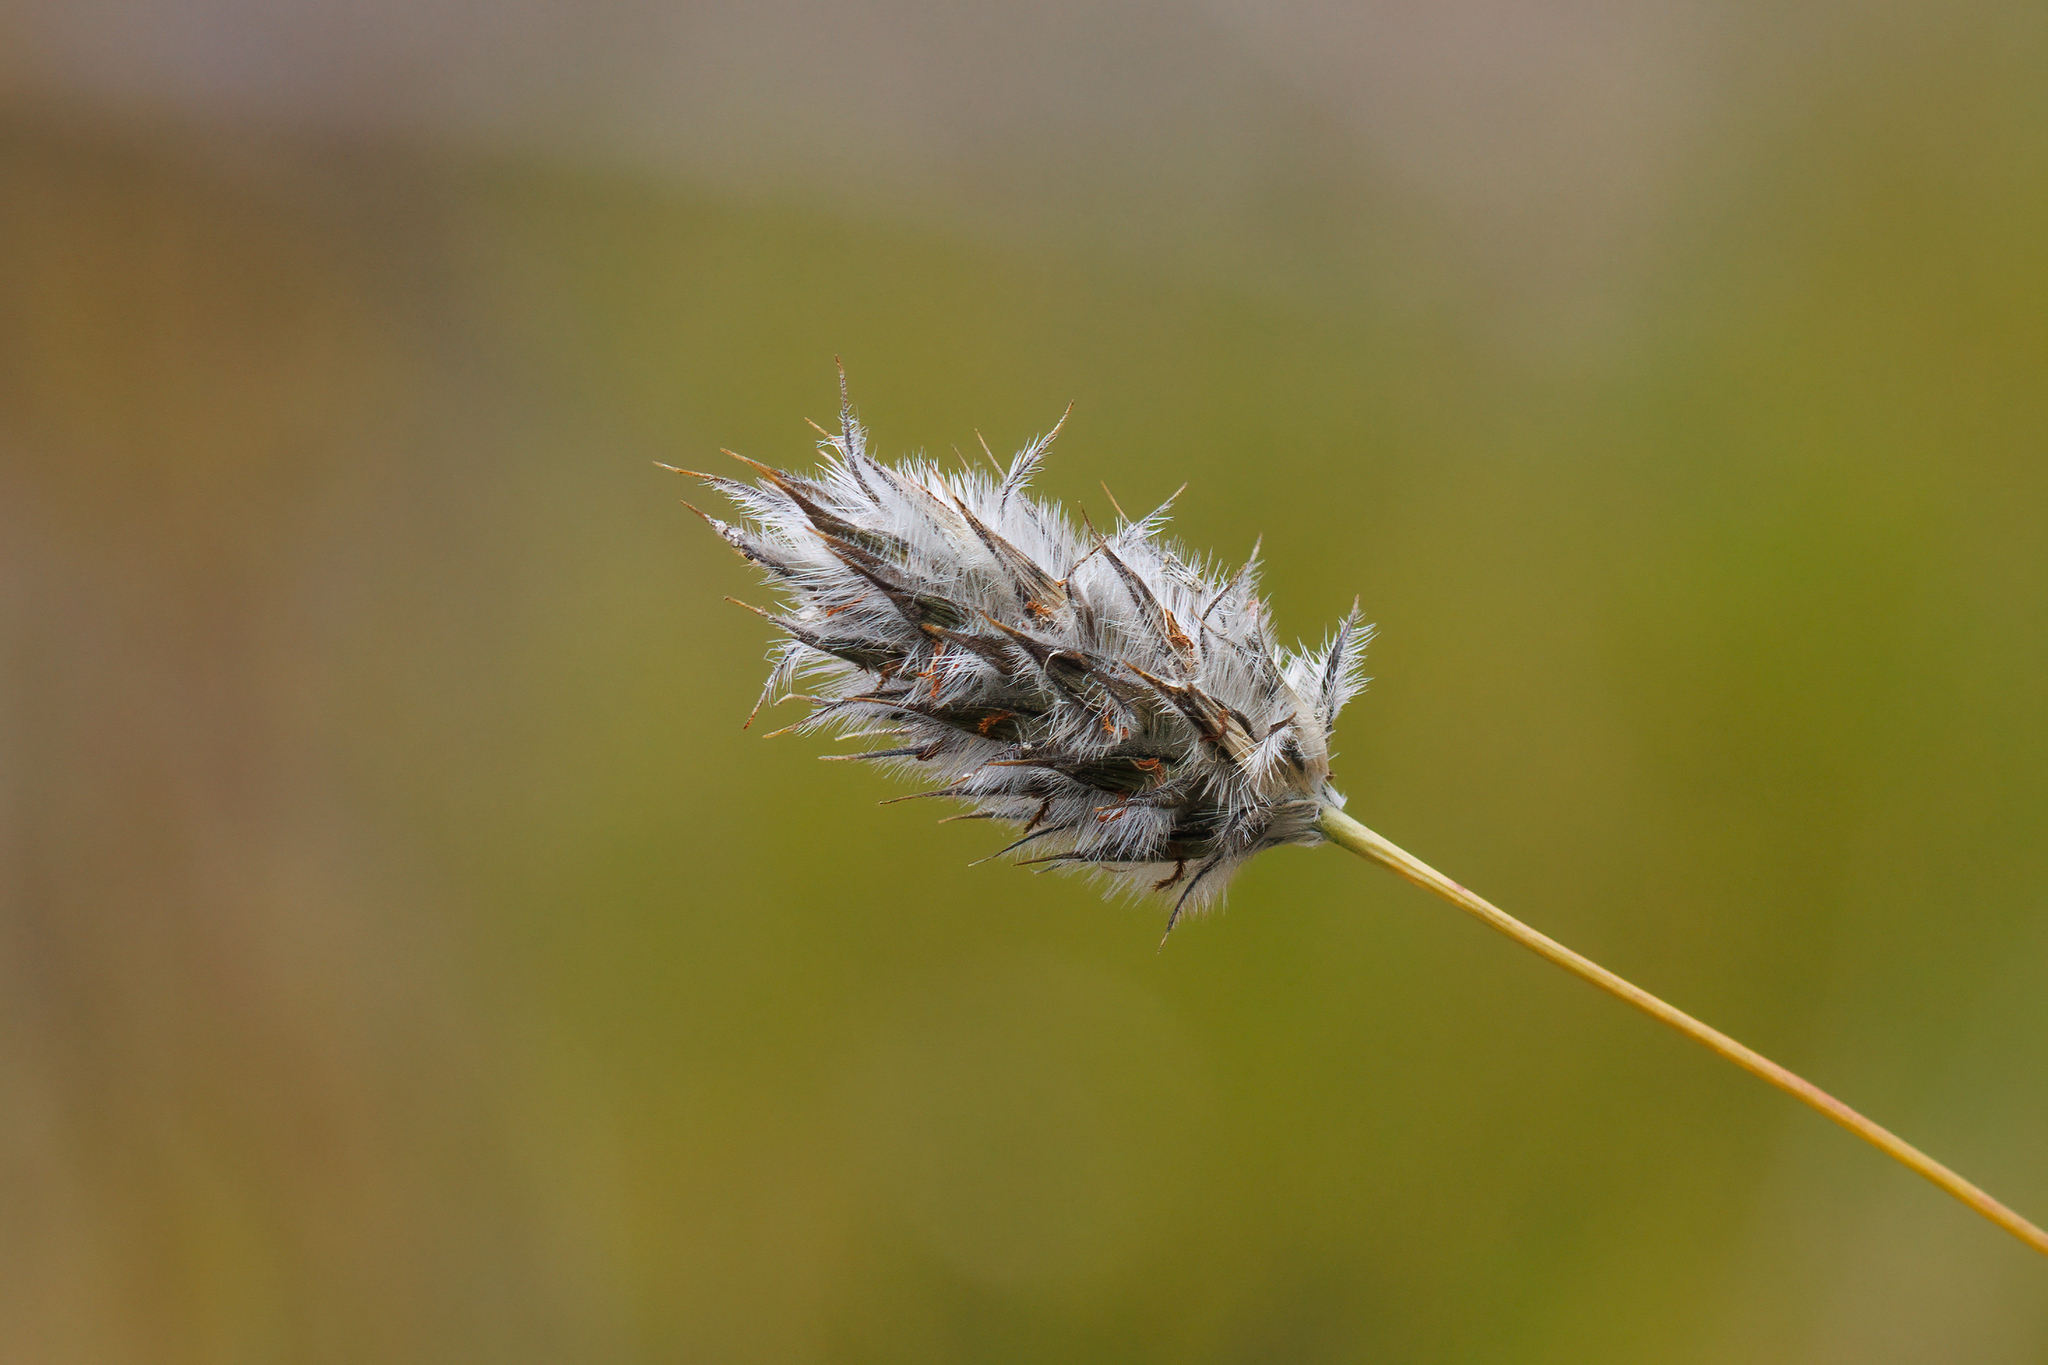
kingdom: Plantae
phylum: Tracheophyta
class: Liliopsida
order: Poales
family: Poaceae
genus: Neurachne
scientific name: Neurachne alopecuroidea
